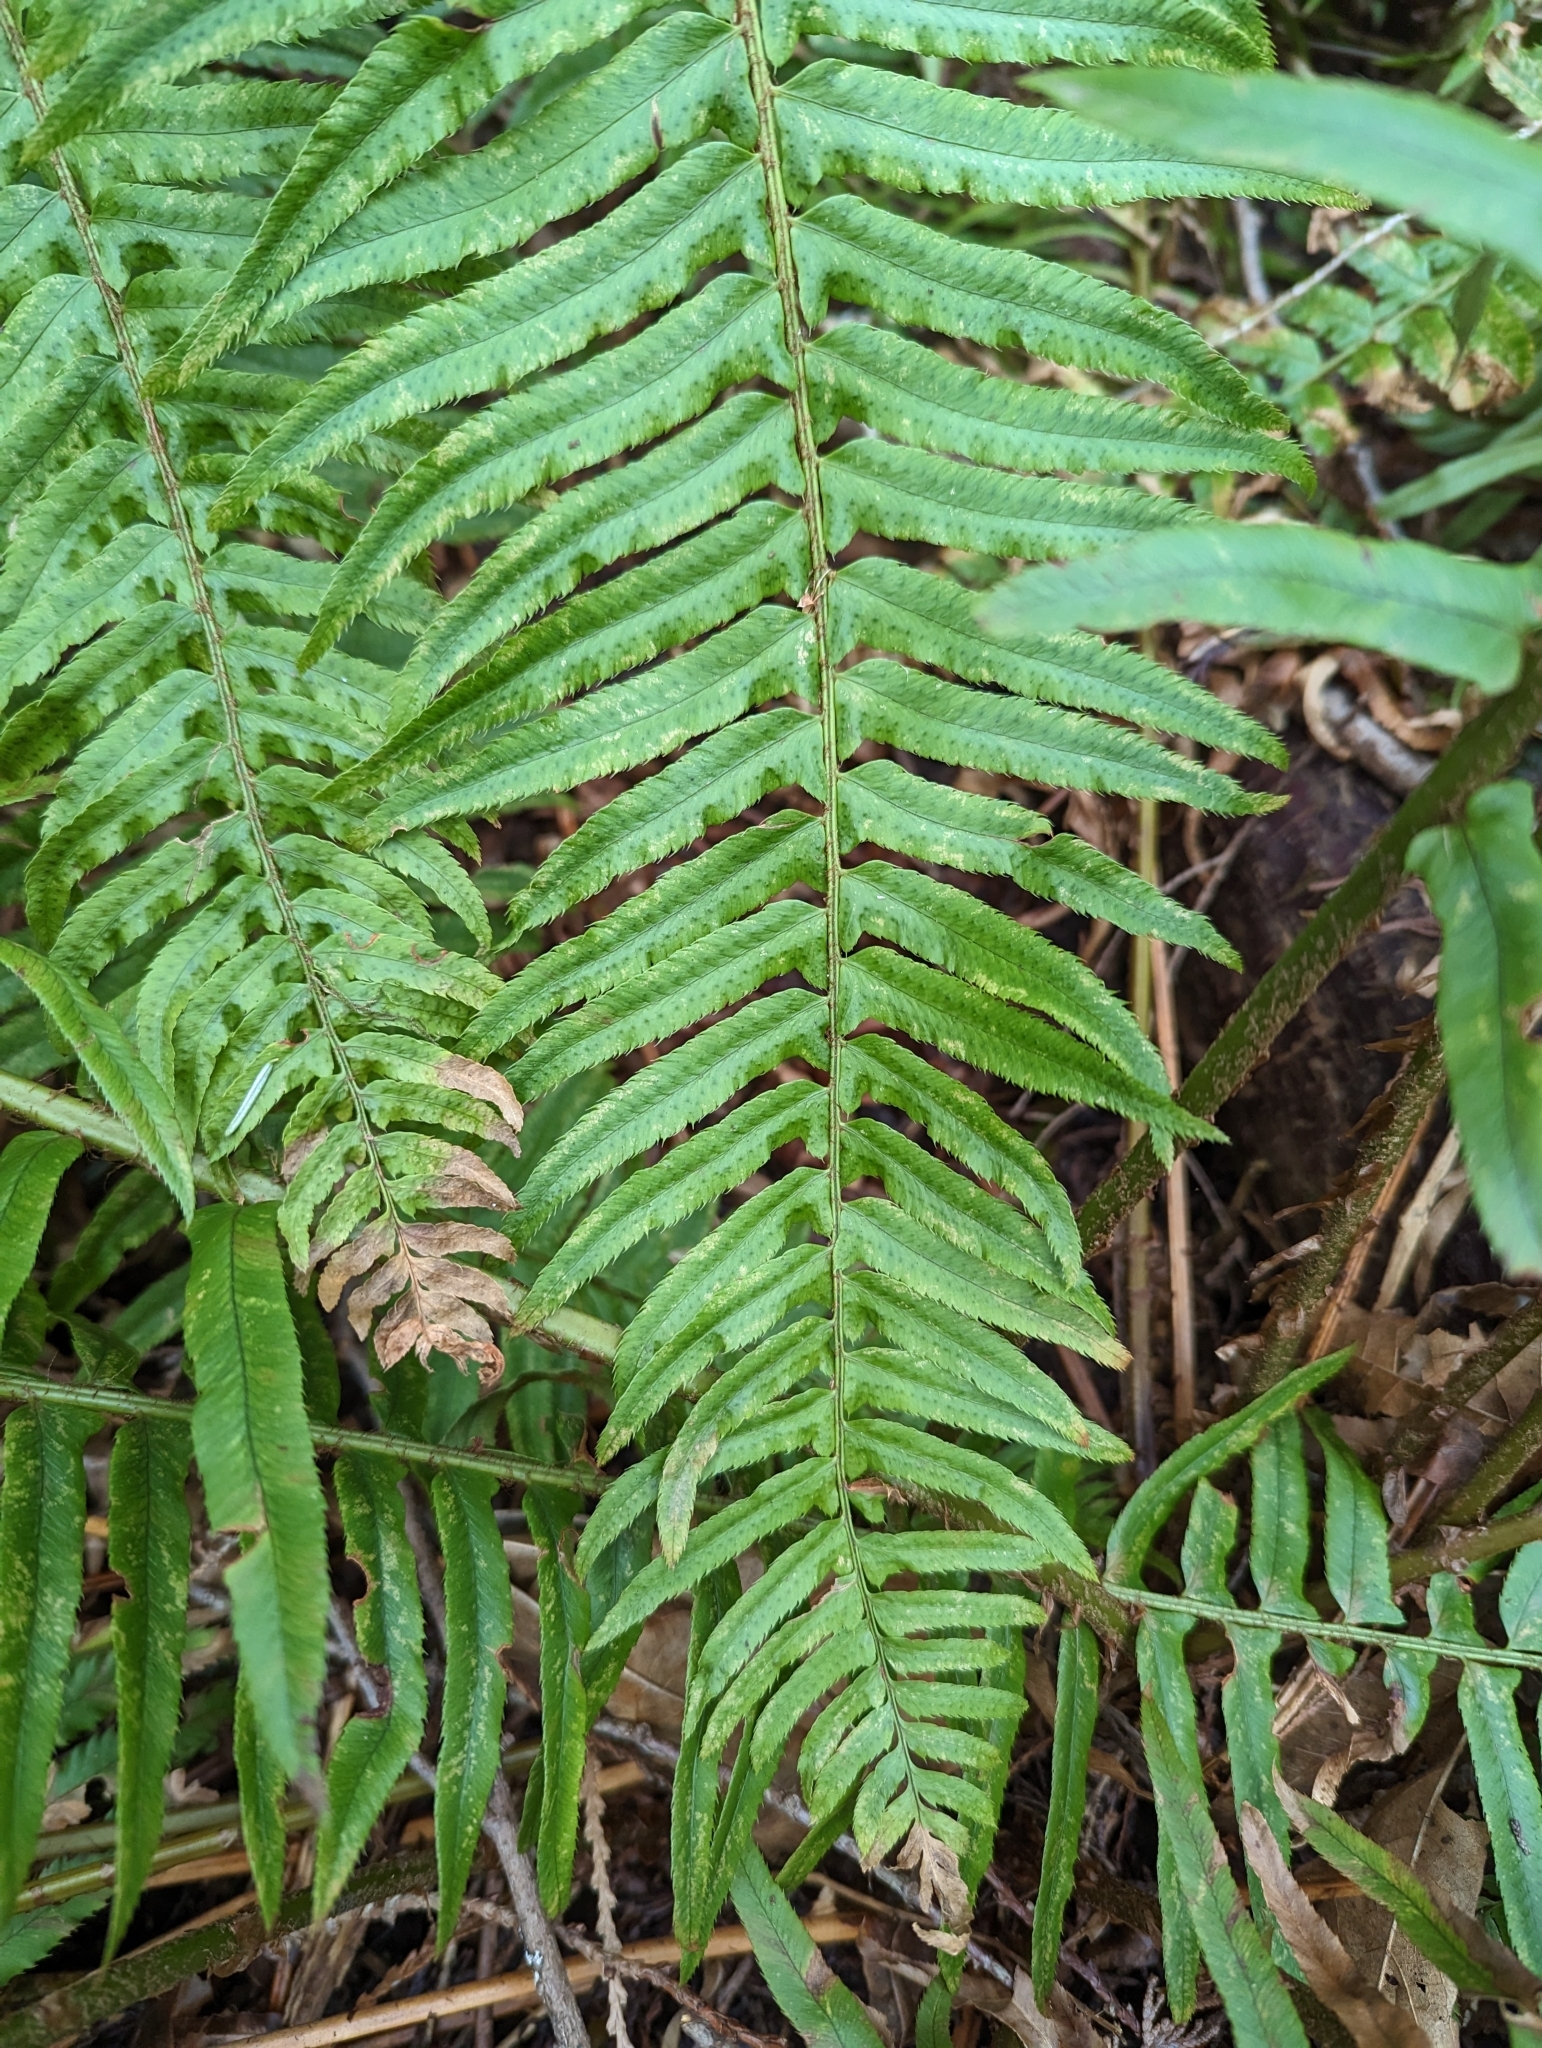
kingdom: Plantae
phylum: Tracheophyta
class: Polypodiopsida
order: Polypodiales
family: Dryopteridaceae
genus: Polystichum
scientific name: Polystichum munitum
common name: Western sword-fern
